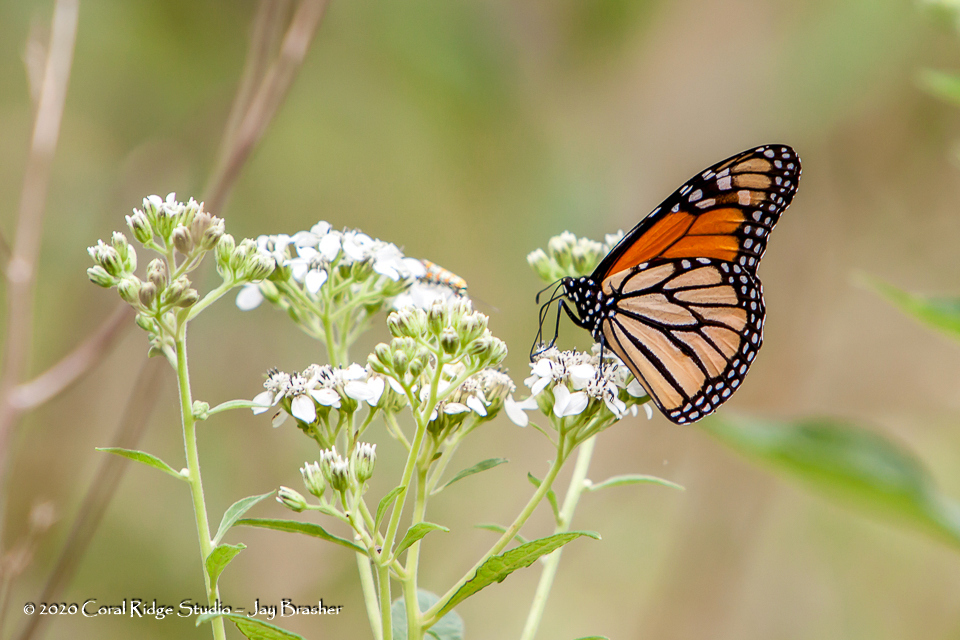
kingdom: Animalia
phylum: Arthropoda
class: Insecta
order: Lepidoptera
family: Nymphalidae
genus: Danaus
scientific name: Danaus plexippus
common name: Monarch
